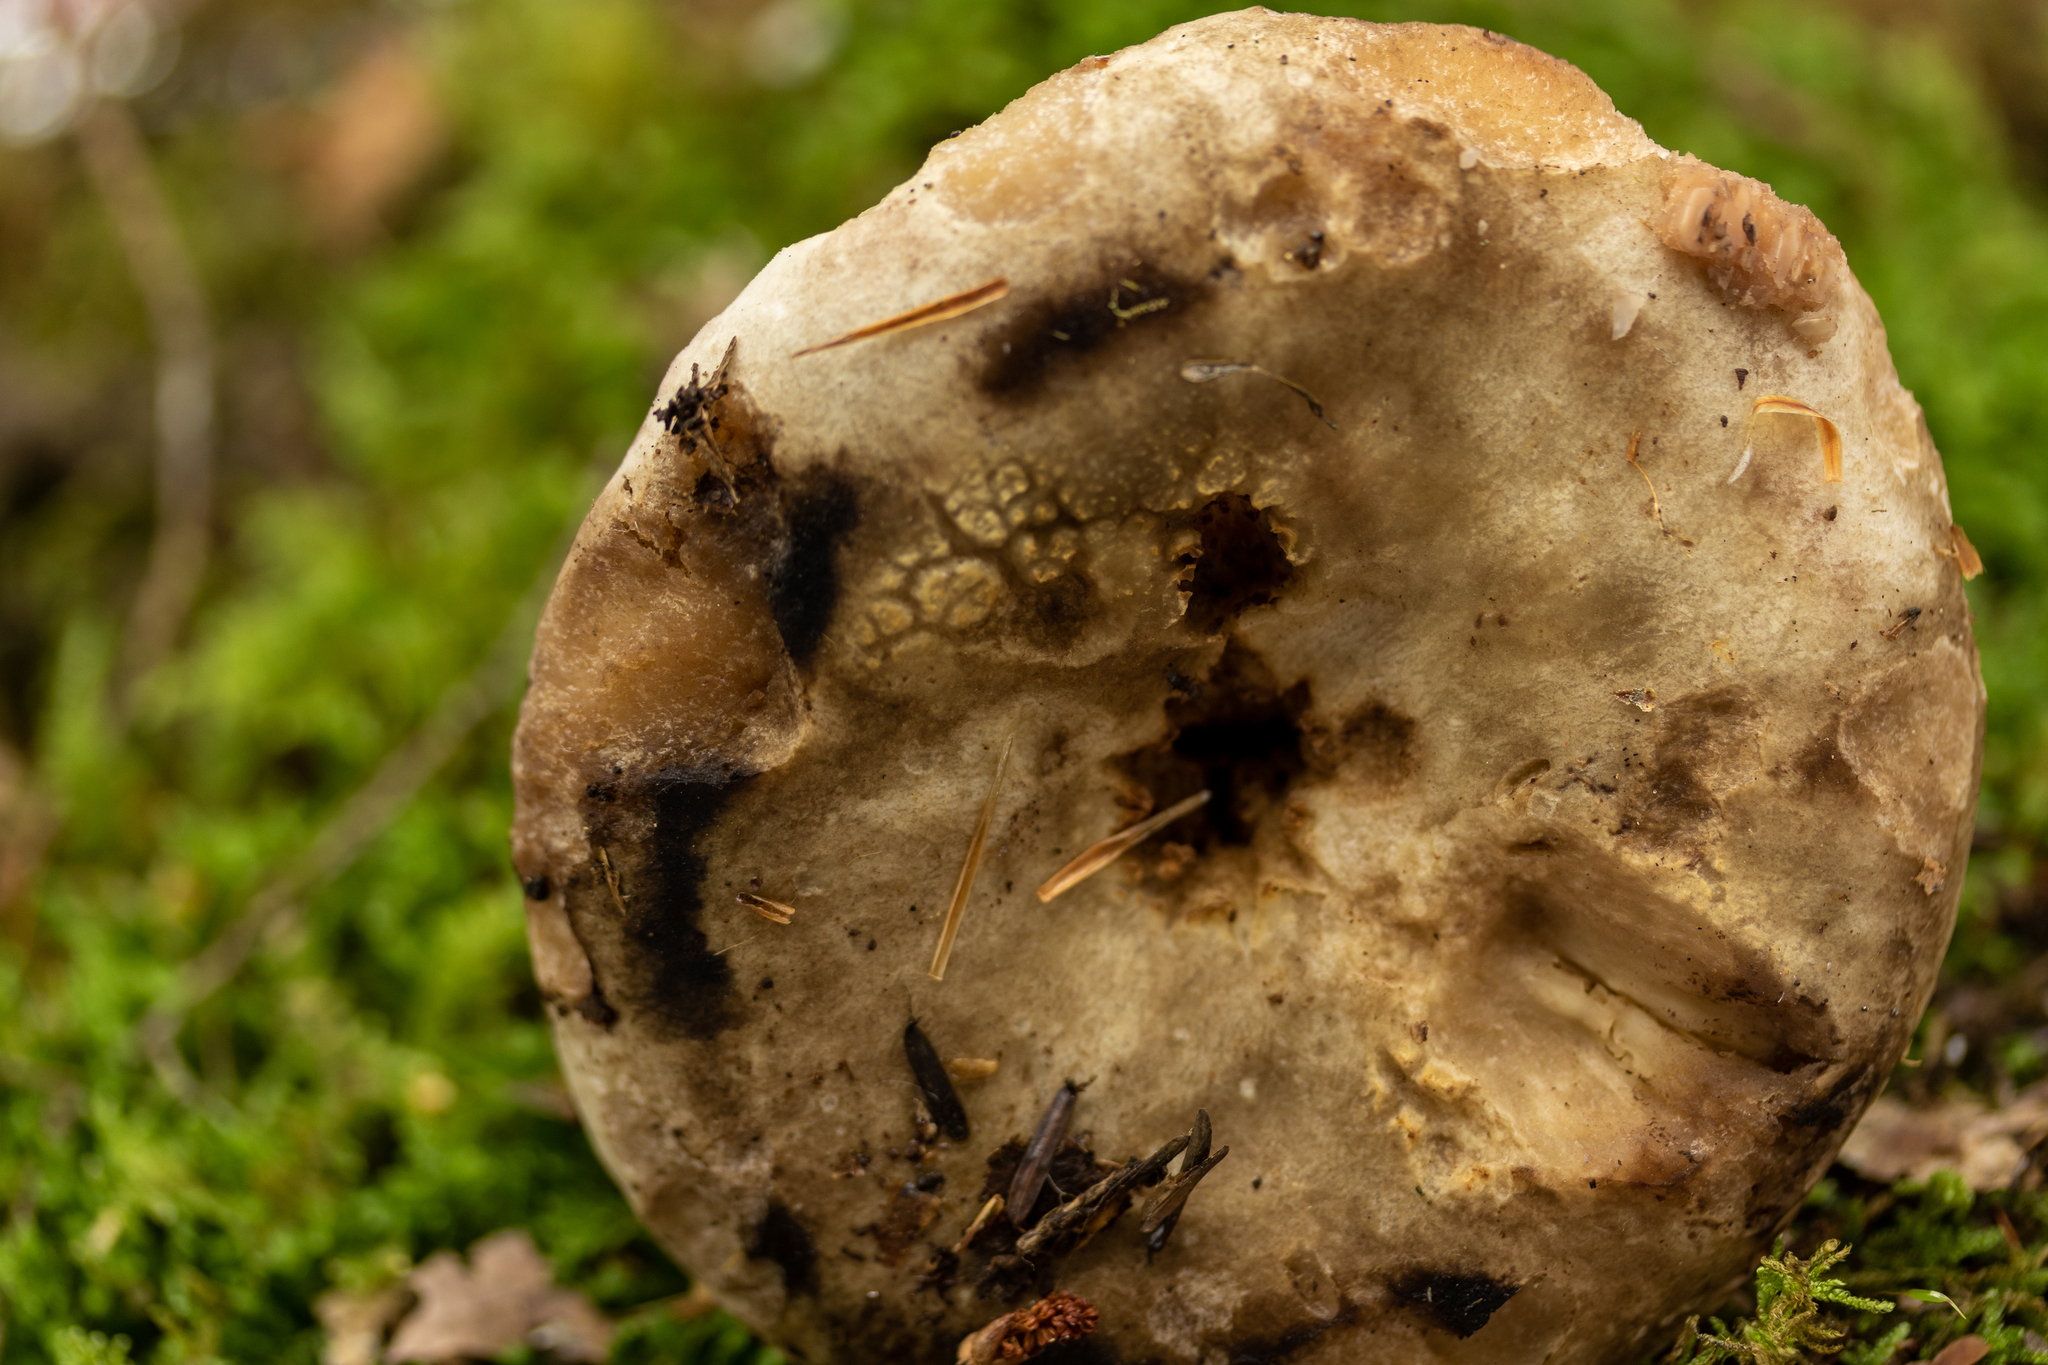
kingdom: Fungi
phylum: Basidiomycota
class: Agaricomycetes
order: Russulales
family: Russulaceae
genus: Russula
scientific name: Russula dissimulans
